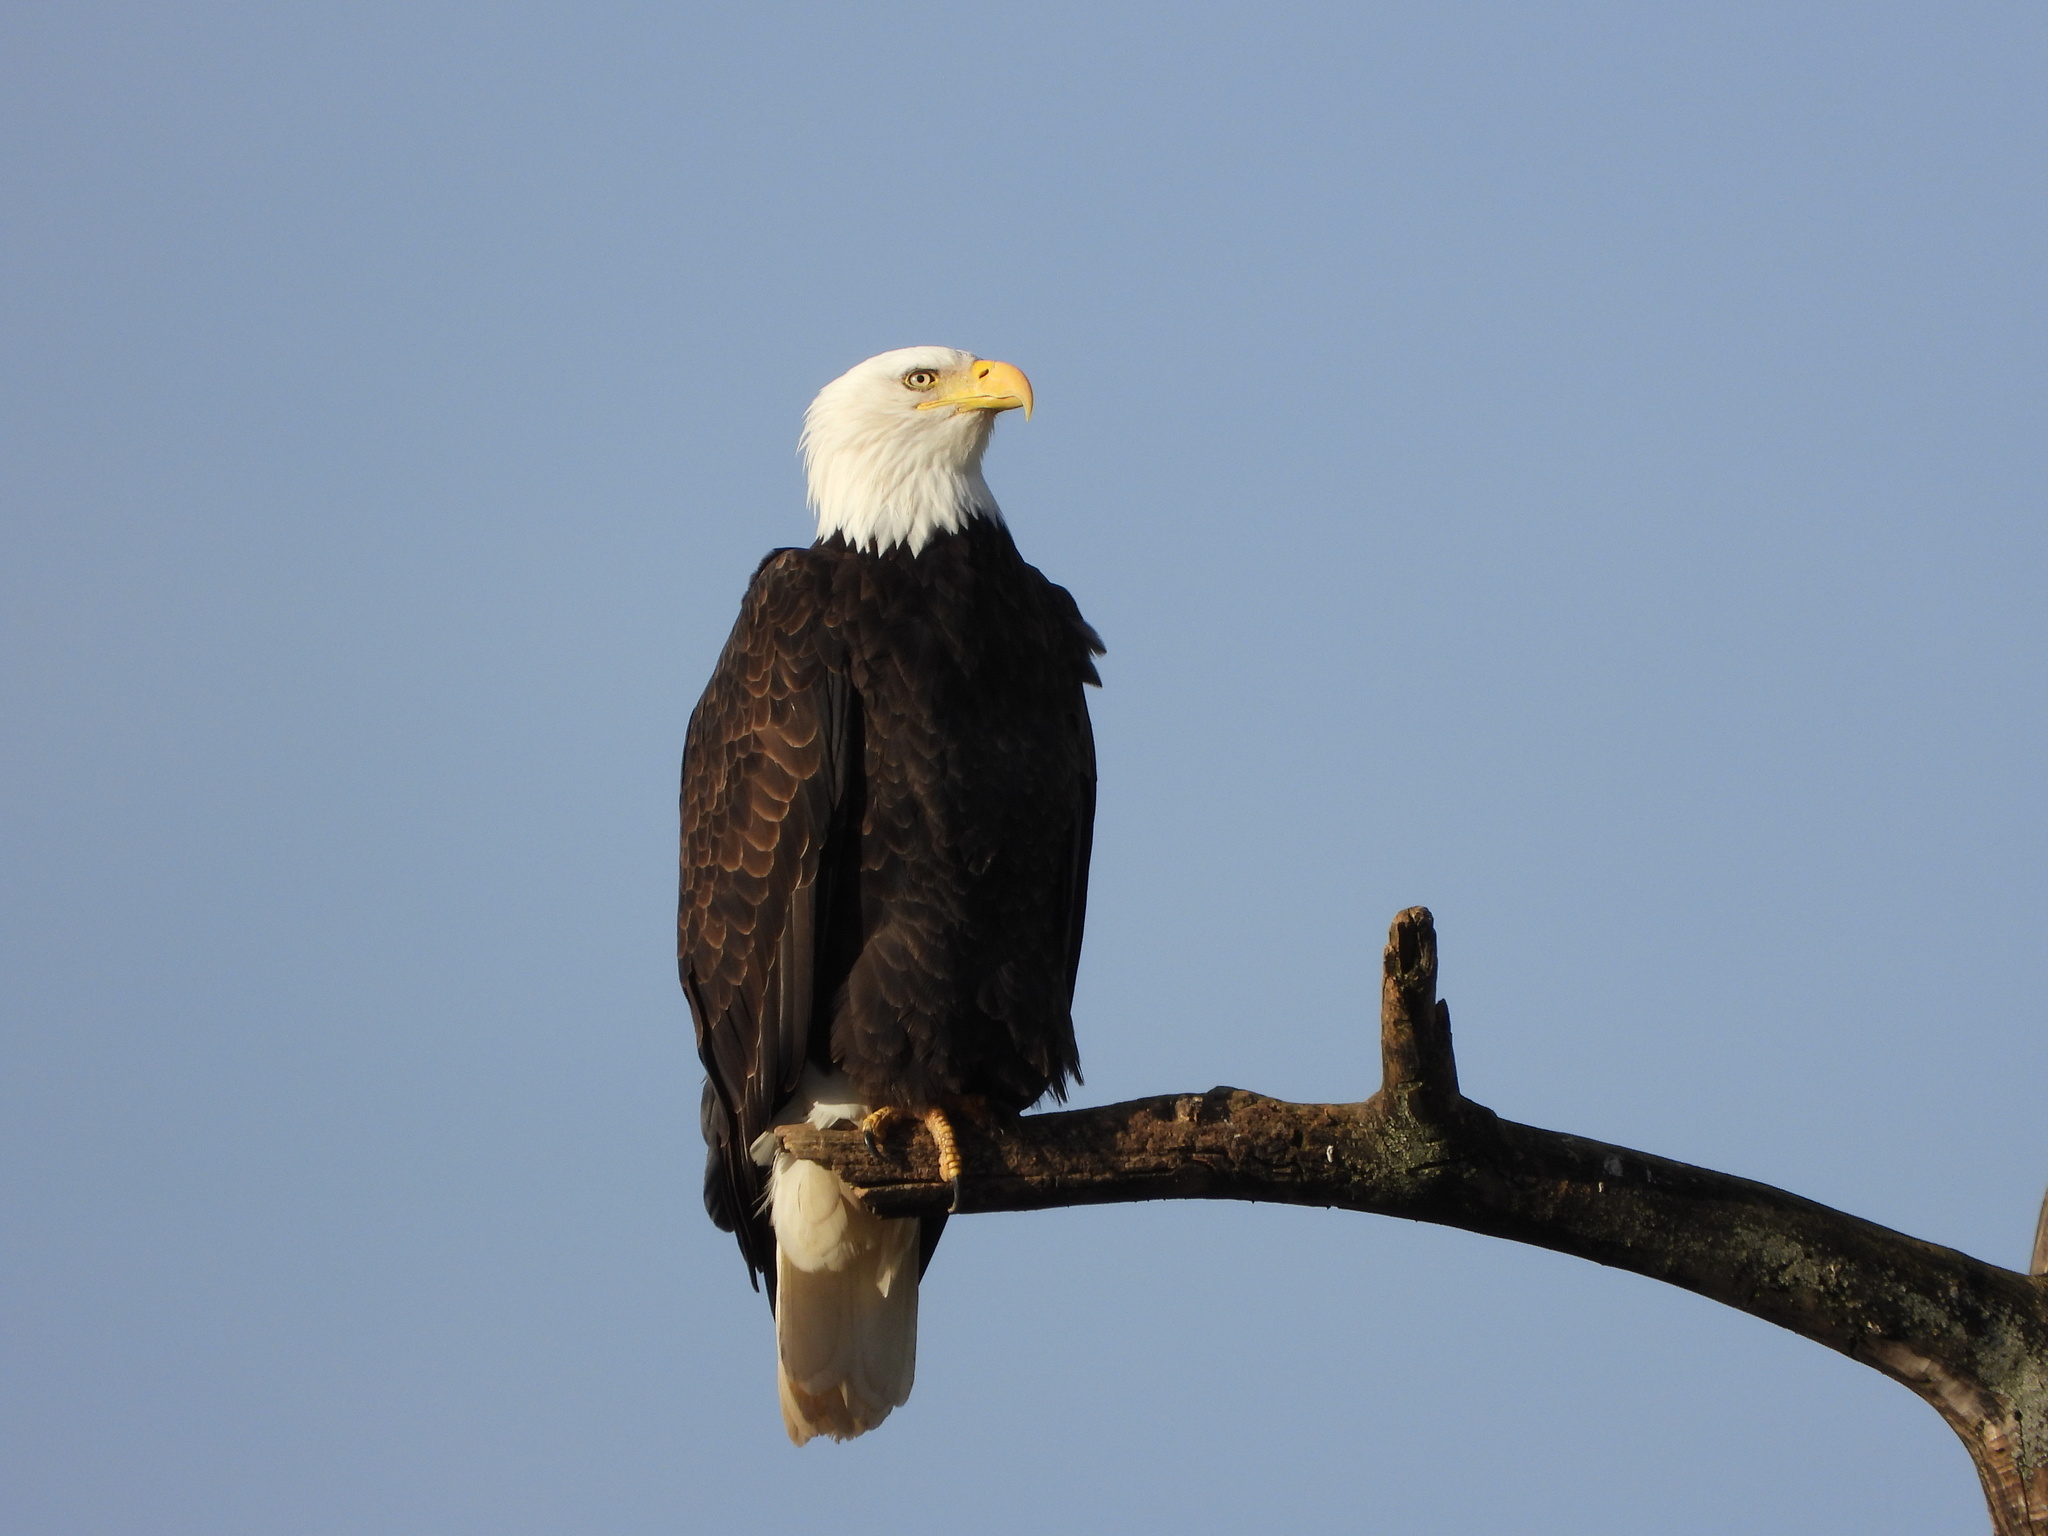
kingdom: Animalia
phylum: Chordata
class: Aves
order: Accipitriformes
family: Accipitridae
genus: Haliaeetus
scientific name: Haliaeetus leucocephalus
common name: Bald eagle
